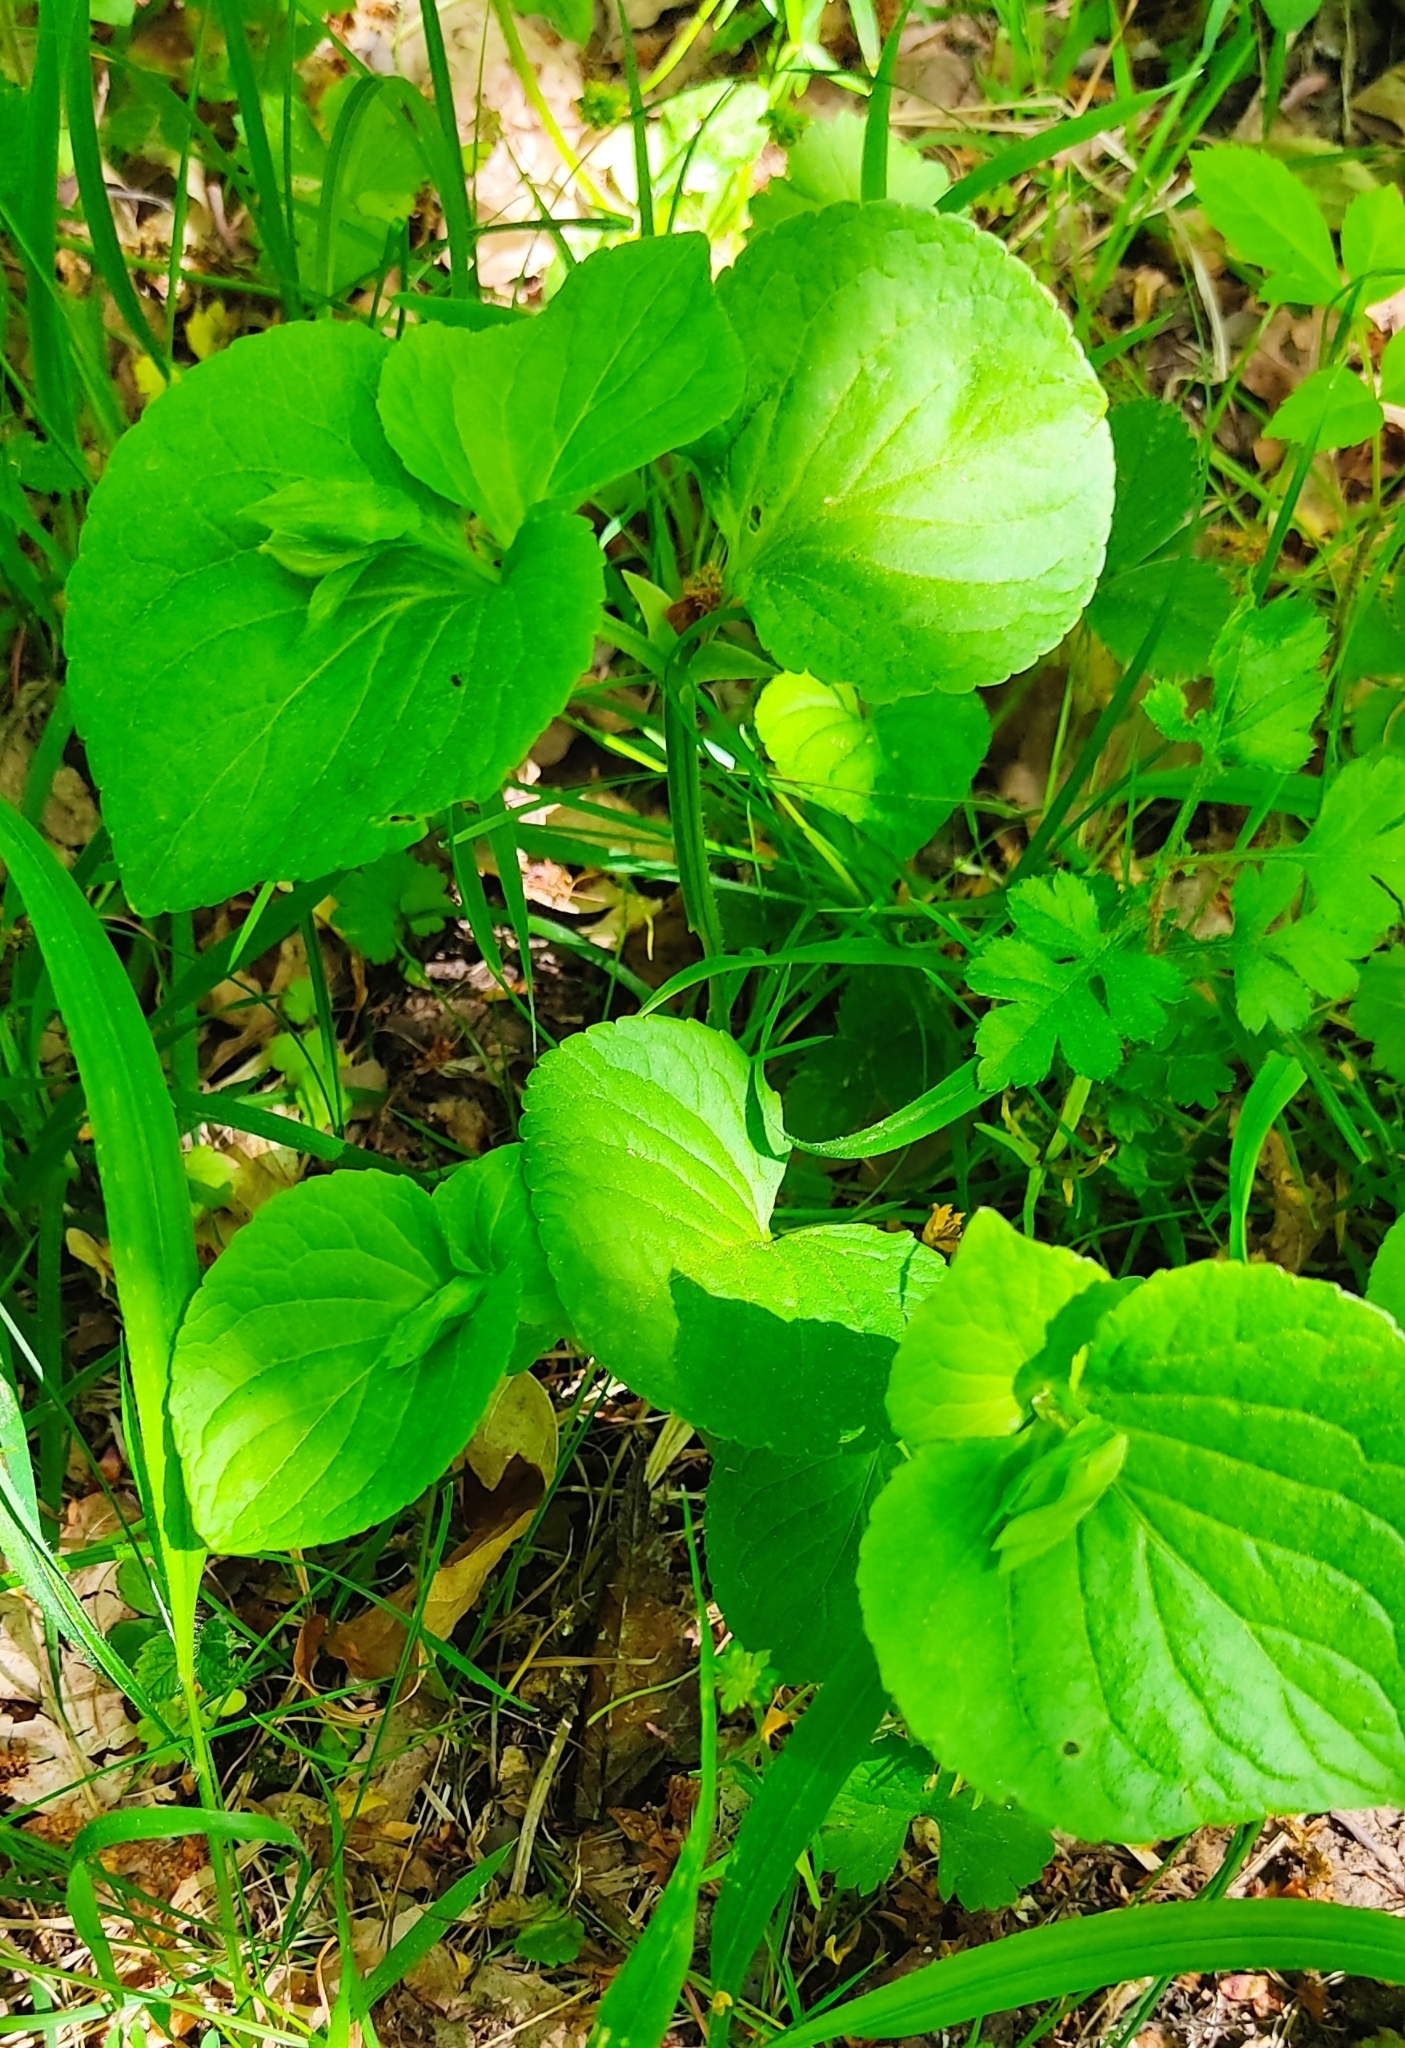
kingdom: Plantae
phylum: Tracheophyta
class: Magnoliopsida
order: Malpighiales
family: Violaceae
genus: Viola
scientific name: Viola mirabilis
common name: Wonder violet
